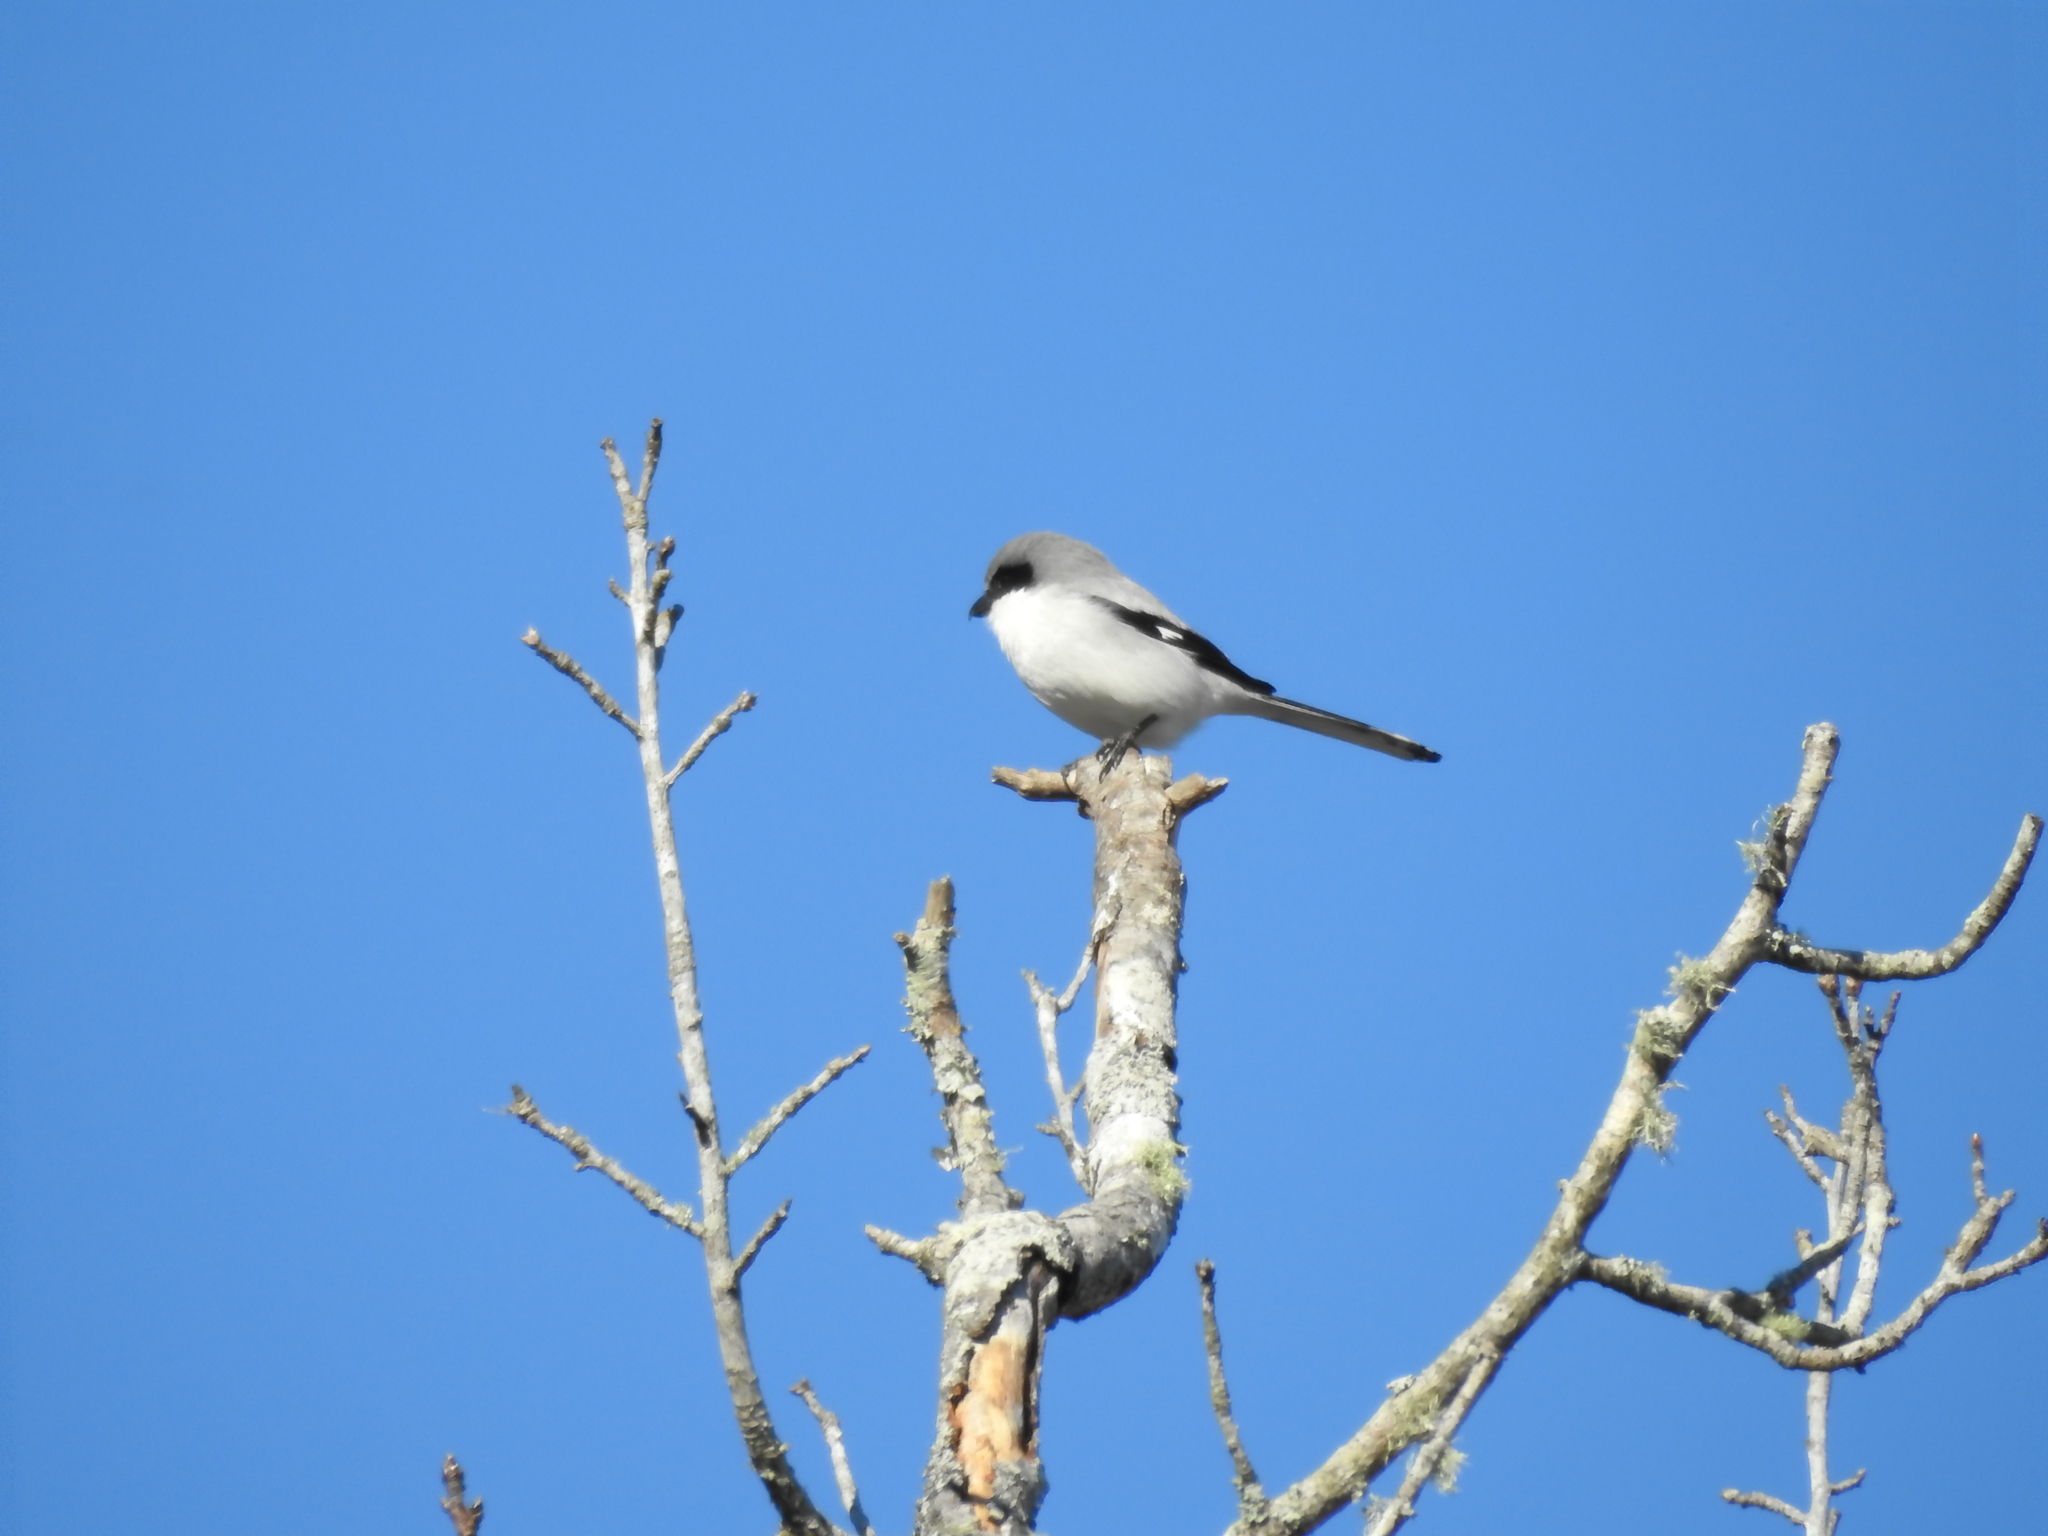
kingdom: Animalia
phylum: Chordata
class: Aves
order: Passeriformes
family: Laniidae
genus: Lanius
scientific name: Lanius ludovicianus
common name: Loggerhead shrike
